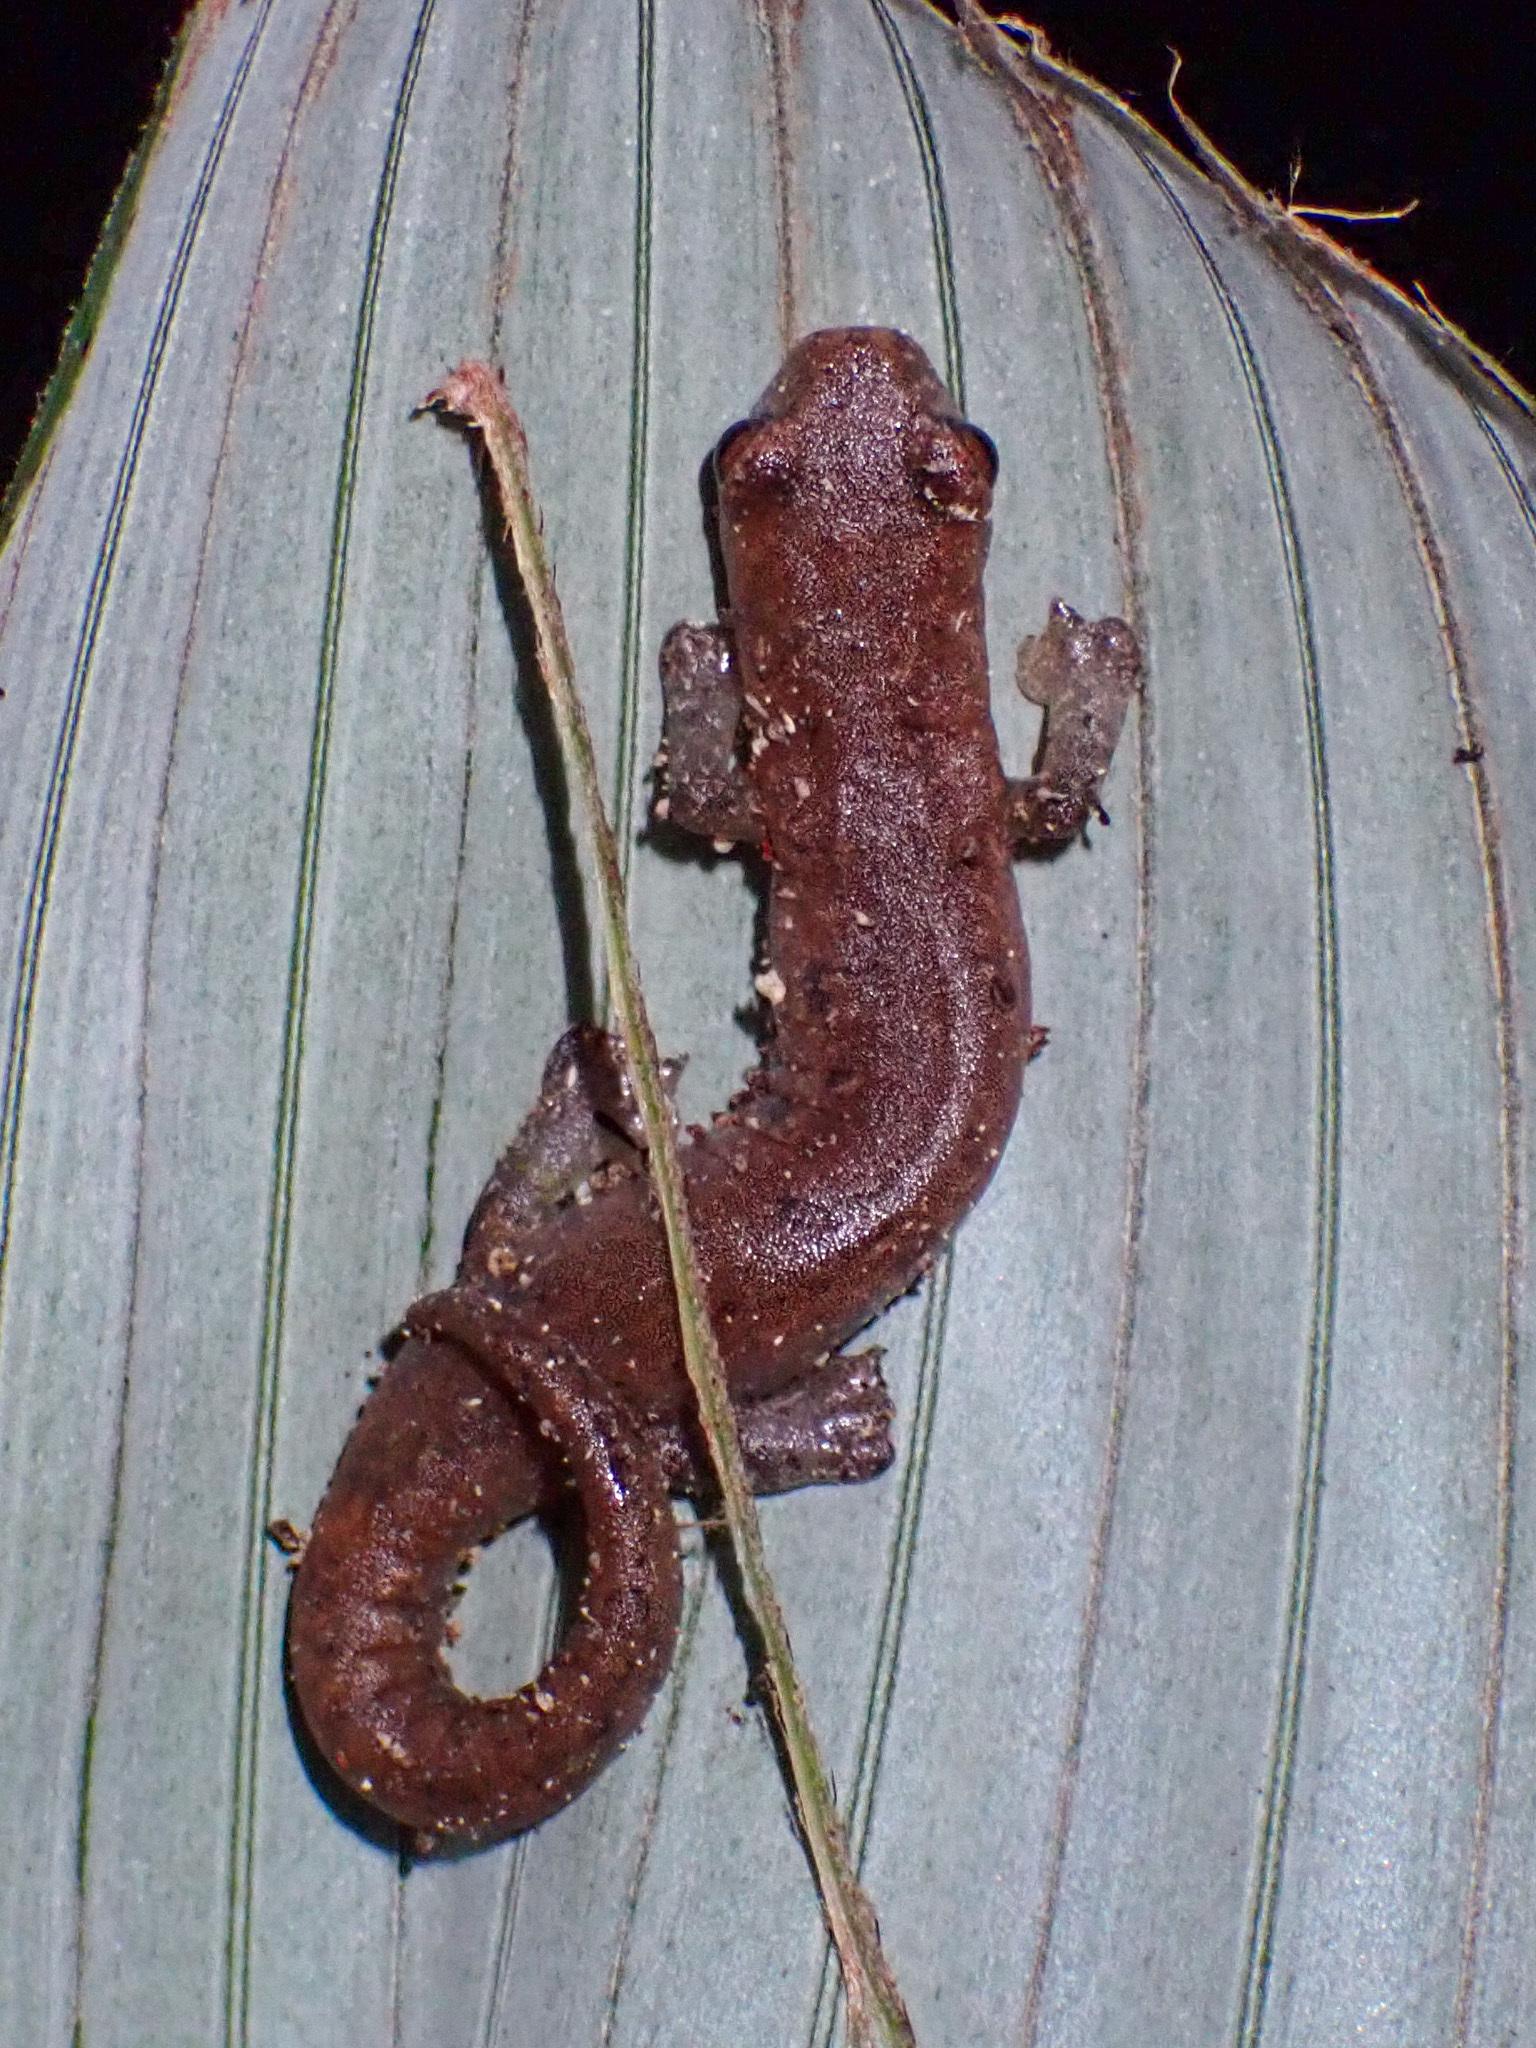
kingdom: Animalia
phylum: Chordata
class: Amphibia
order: Caudata
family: Plethodontidae
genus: Bolitoglossa
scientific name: Bolitoglossa nympha
